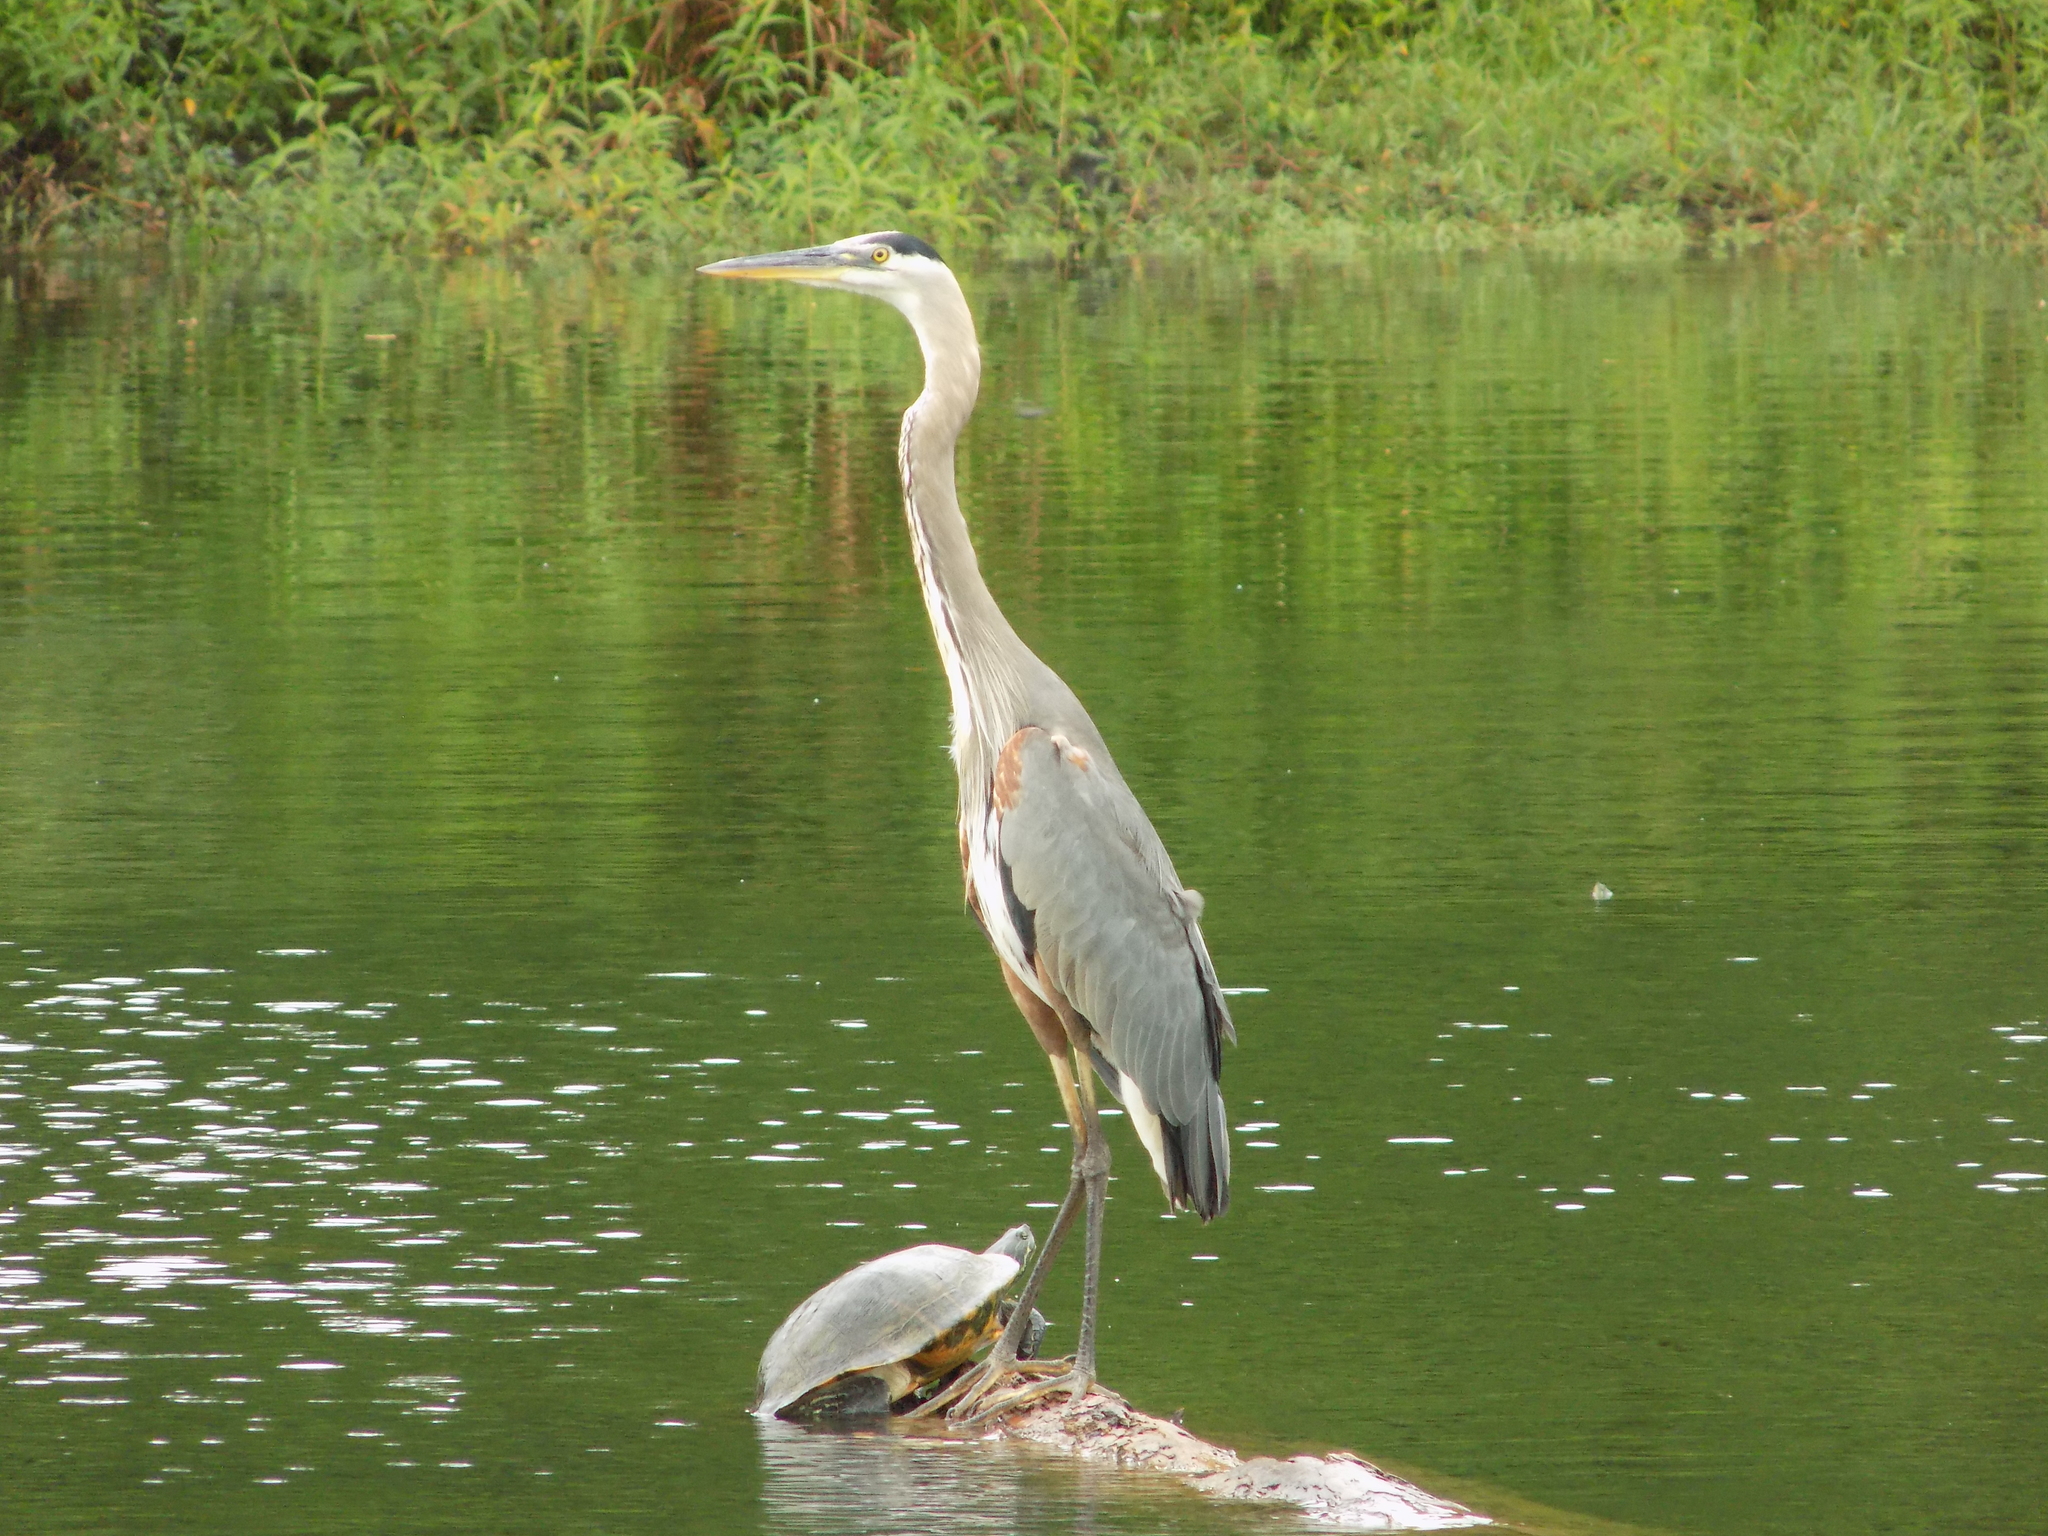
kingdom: Animalia
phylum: Chordata
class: Aves
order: Pelecaniformes
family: Ardeidae
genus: Ardea
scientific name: Ardea herodias
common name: Great blue heron
